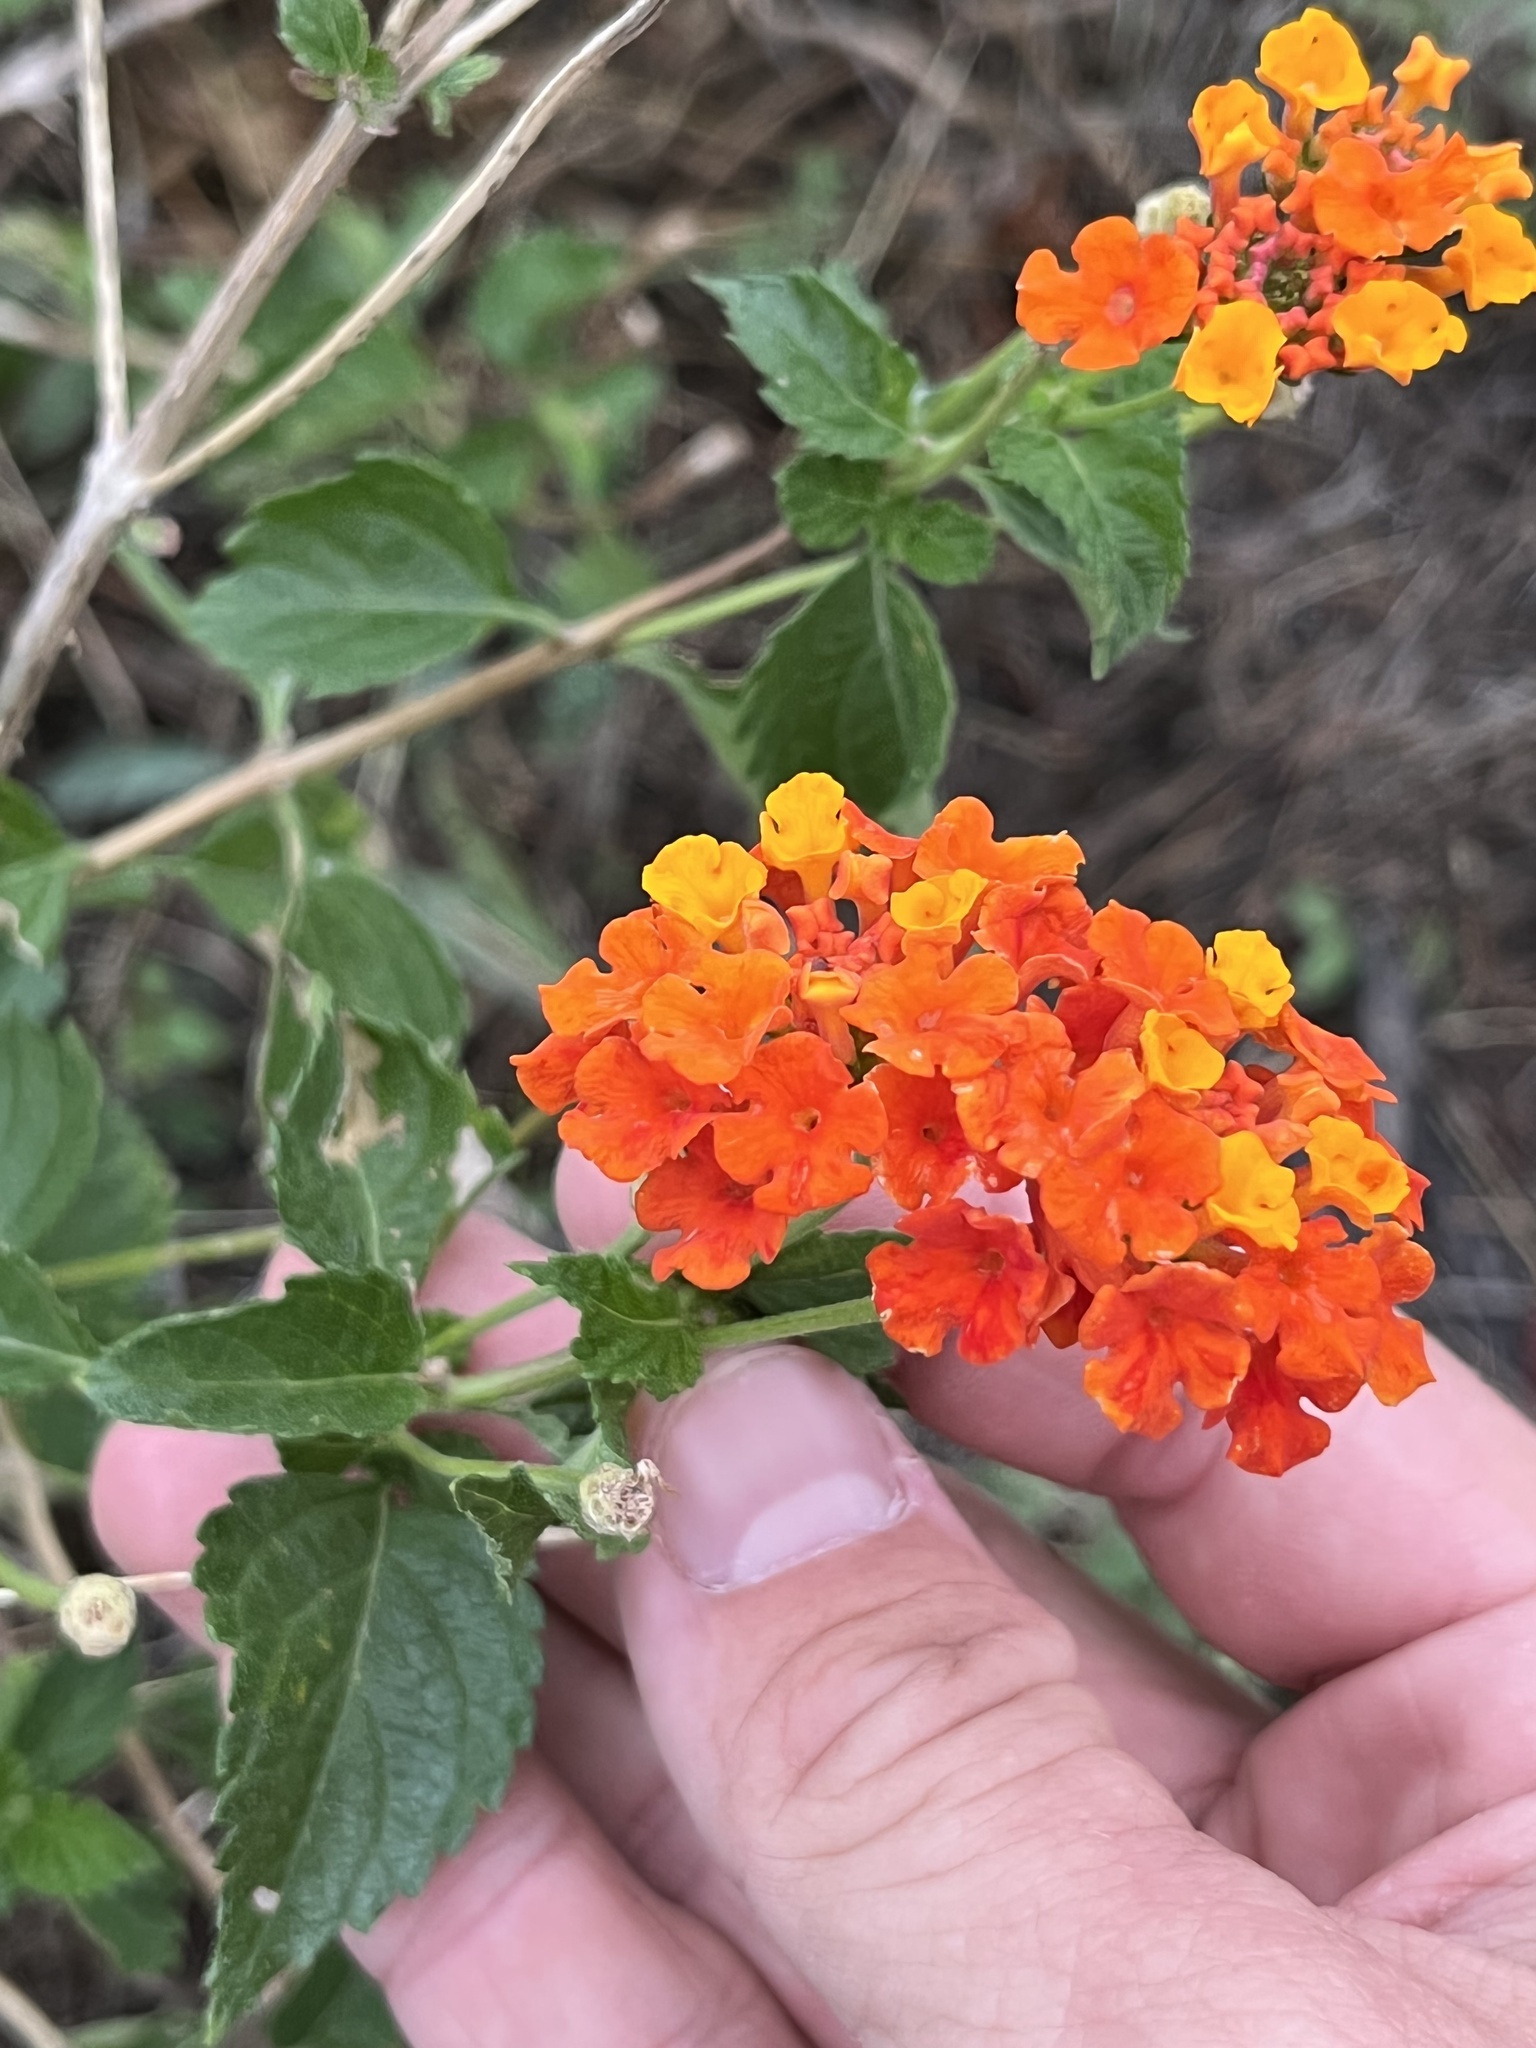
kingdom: Plantae
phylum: Tracheophyta
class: Magnoliopsida
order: Lamiales
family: Verbenaceae
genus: Lantana
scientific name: Lantana urticoides
